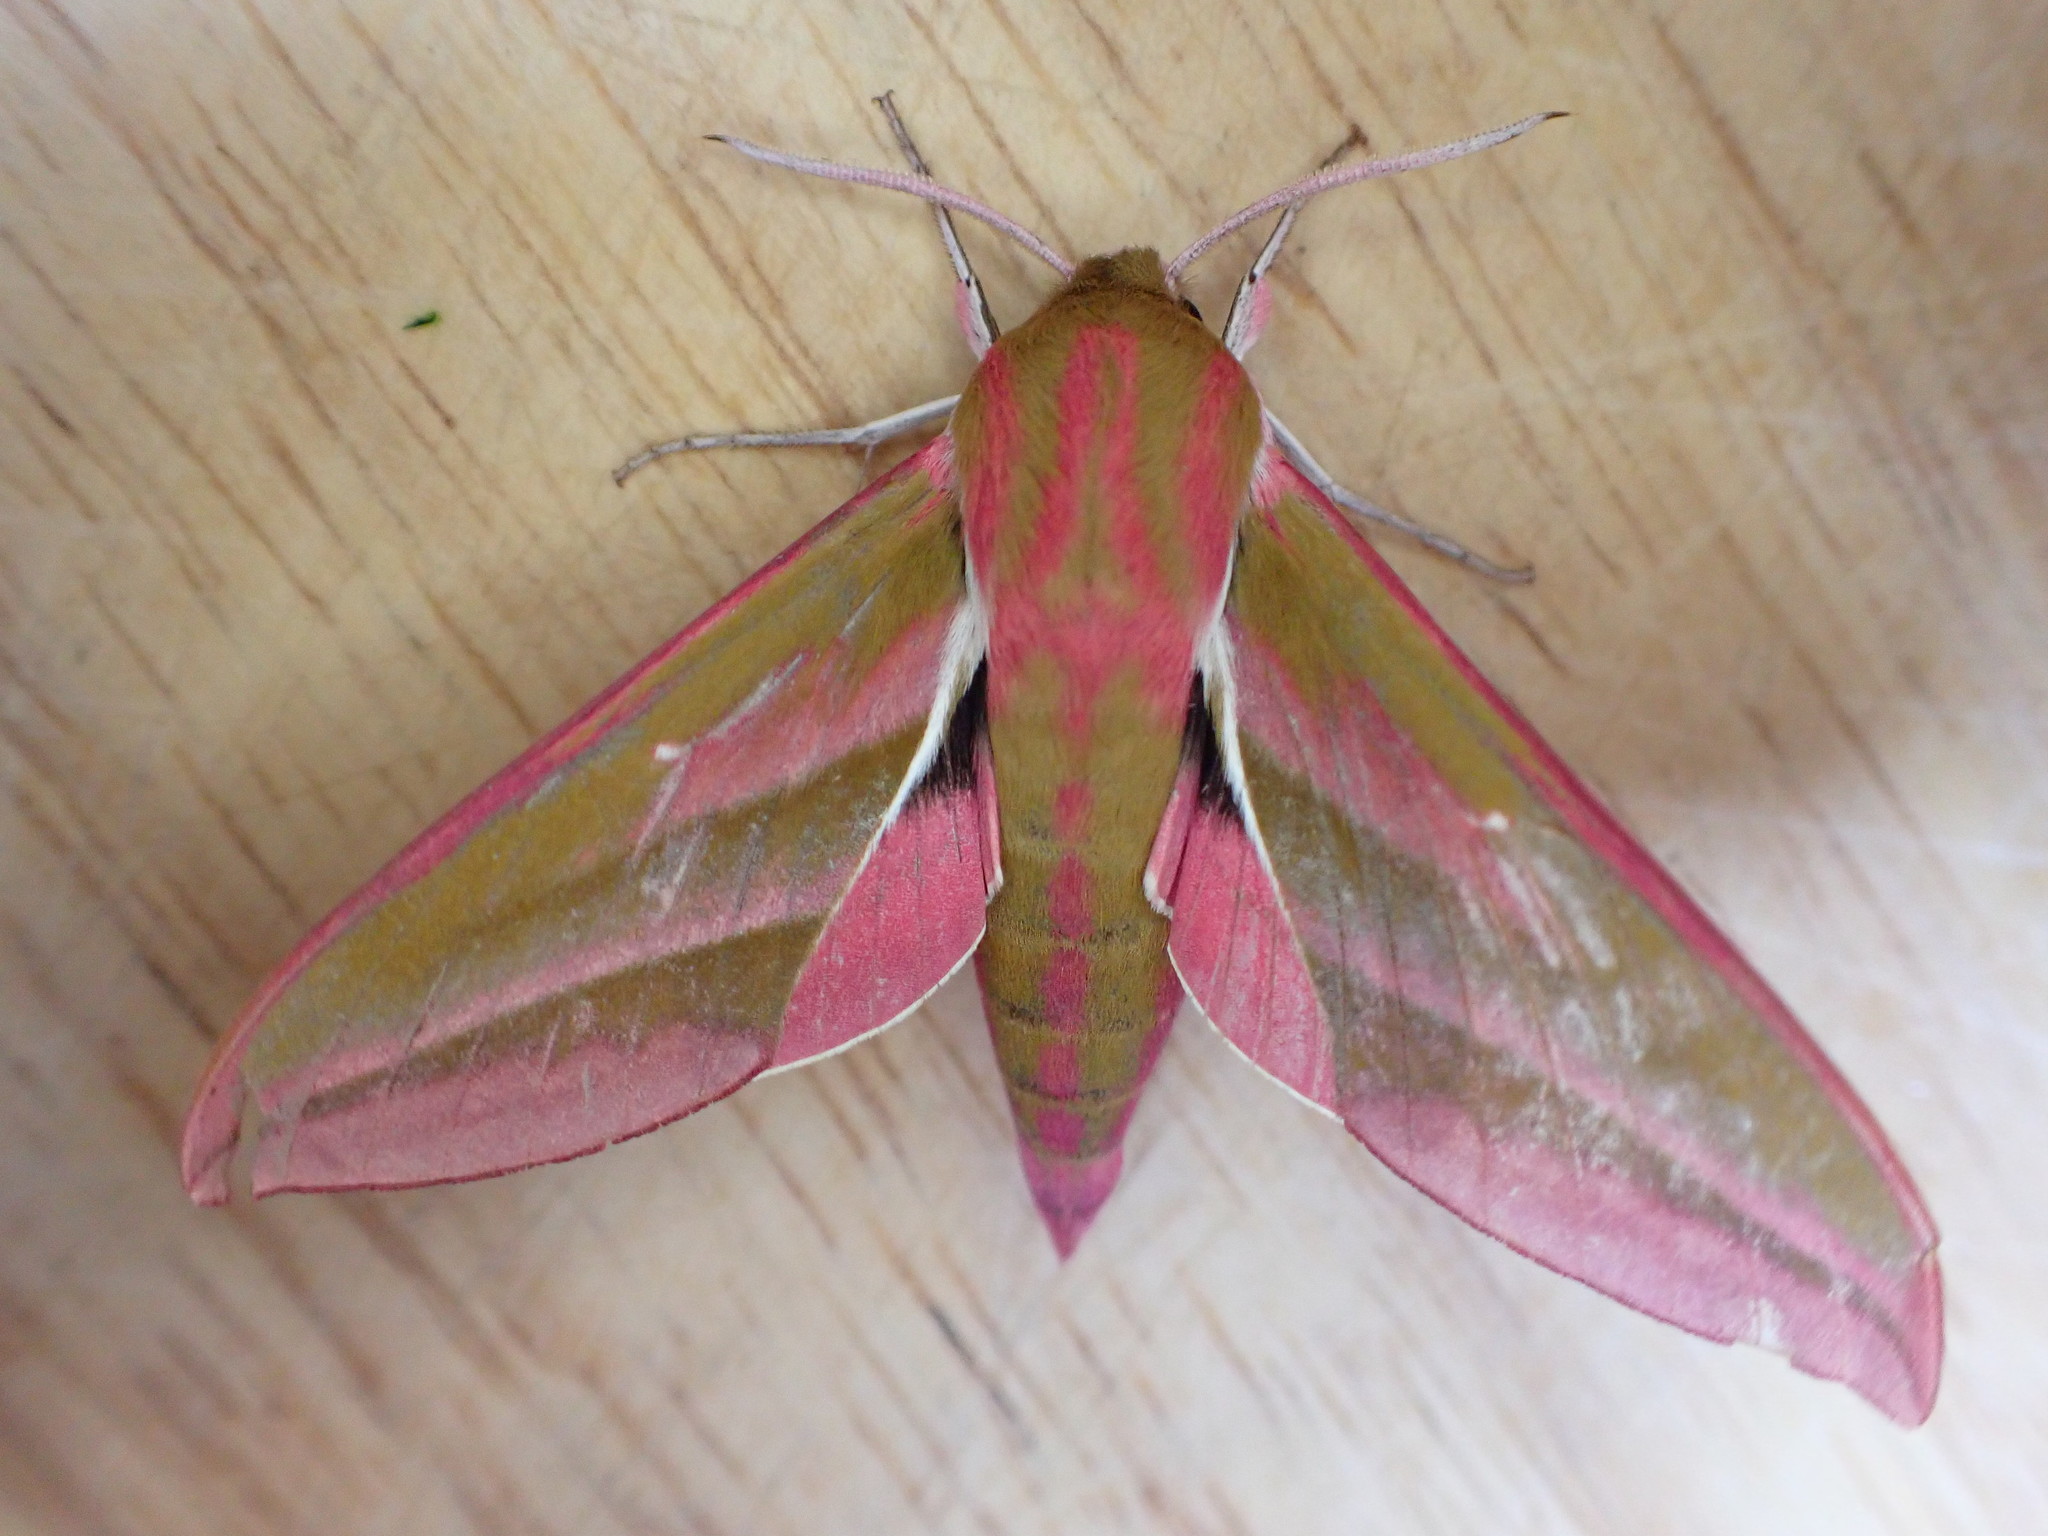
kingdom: Animalia
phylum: Arthropoda
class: Insecta
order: Lepidoptera
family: Sphingidae
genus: Deilephila
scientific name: Deilephila elpenor
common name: Elephant hawk-moth
